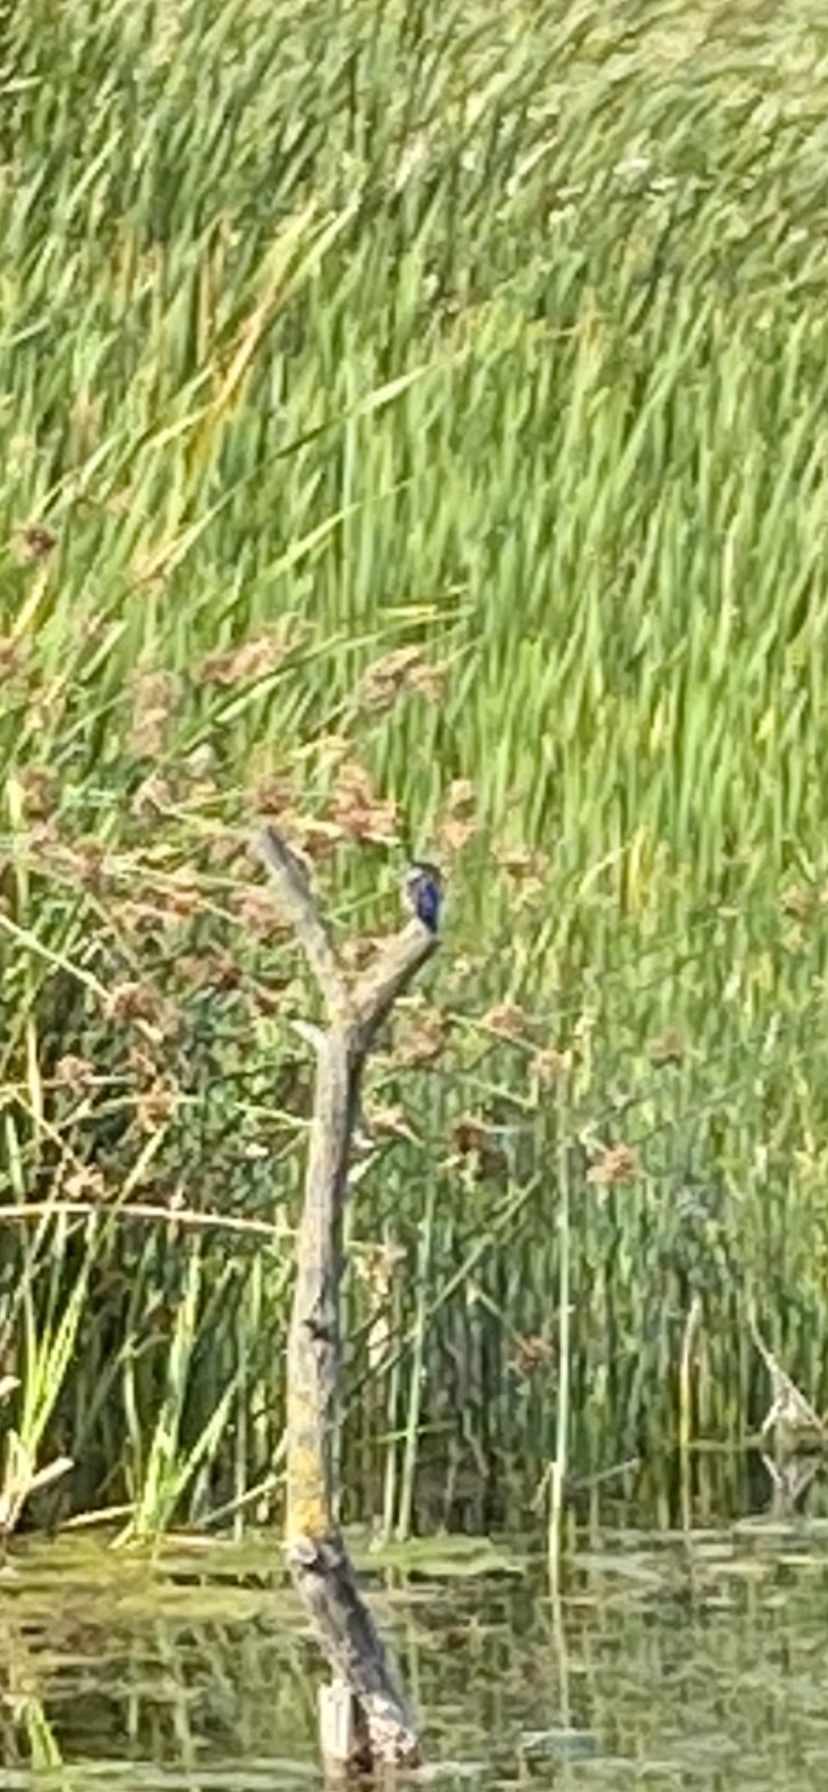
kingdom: Animalia
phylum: Chordata
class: Aves
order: Coraciiformes
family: Alcedinidae
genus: Corythornis
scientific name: Corythornis cristatus
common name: Malachite kingfisher
